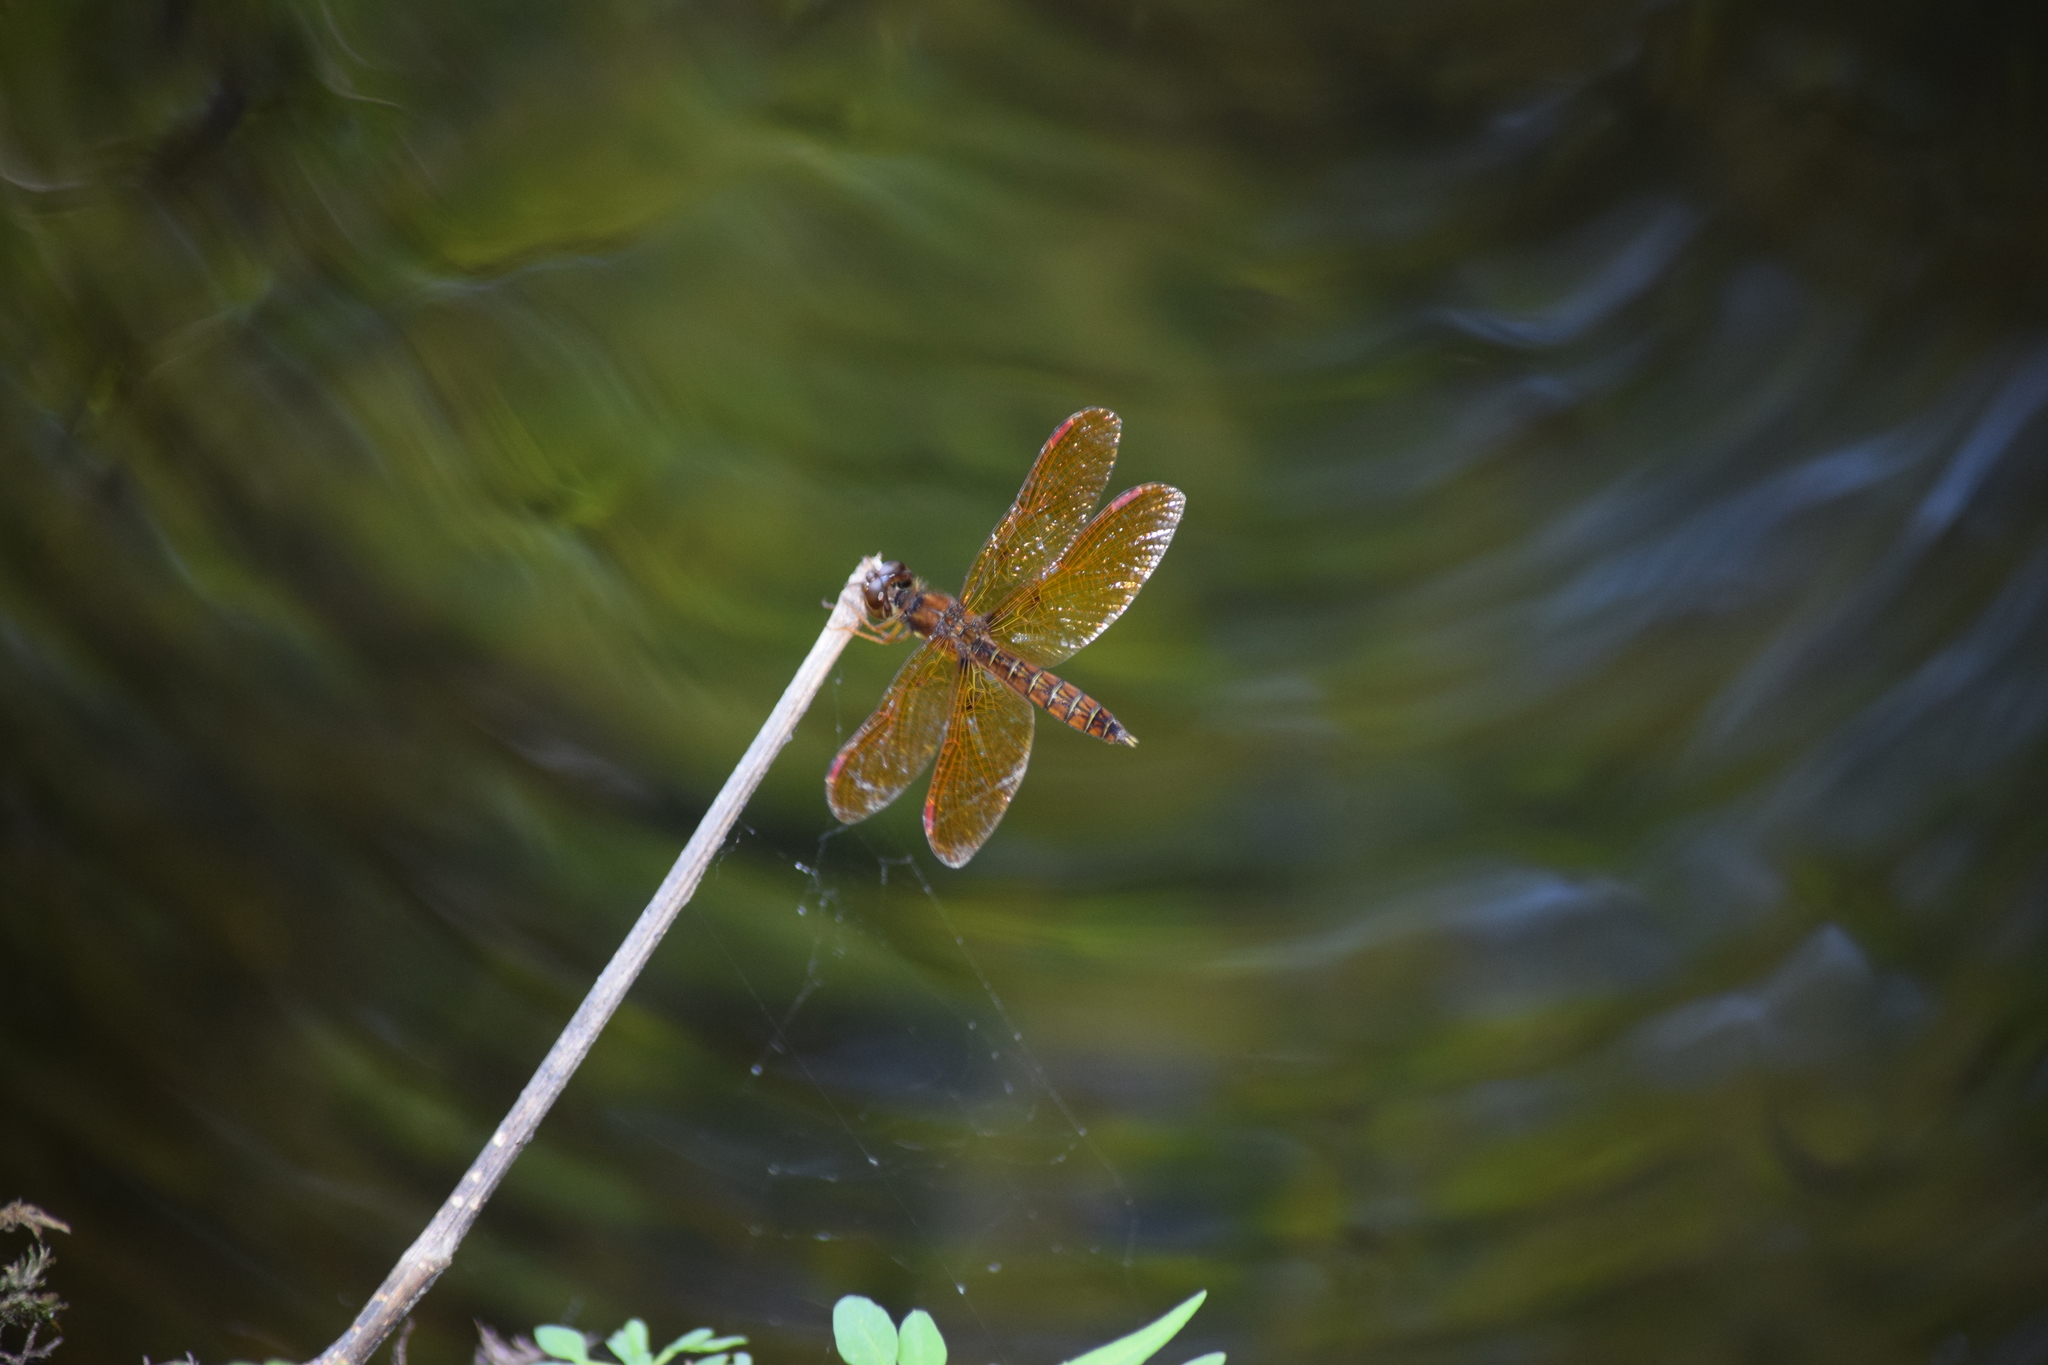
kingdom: Animalia
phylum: Arthropoda
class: Insecta
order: Odonata
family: Libellulidae
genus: Perithemis
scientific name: Perithemis tenera
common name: Eastern amberwing
